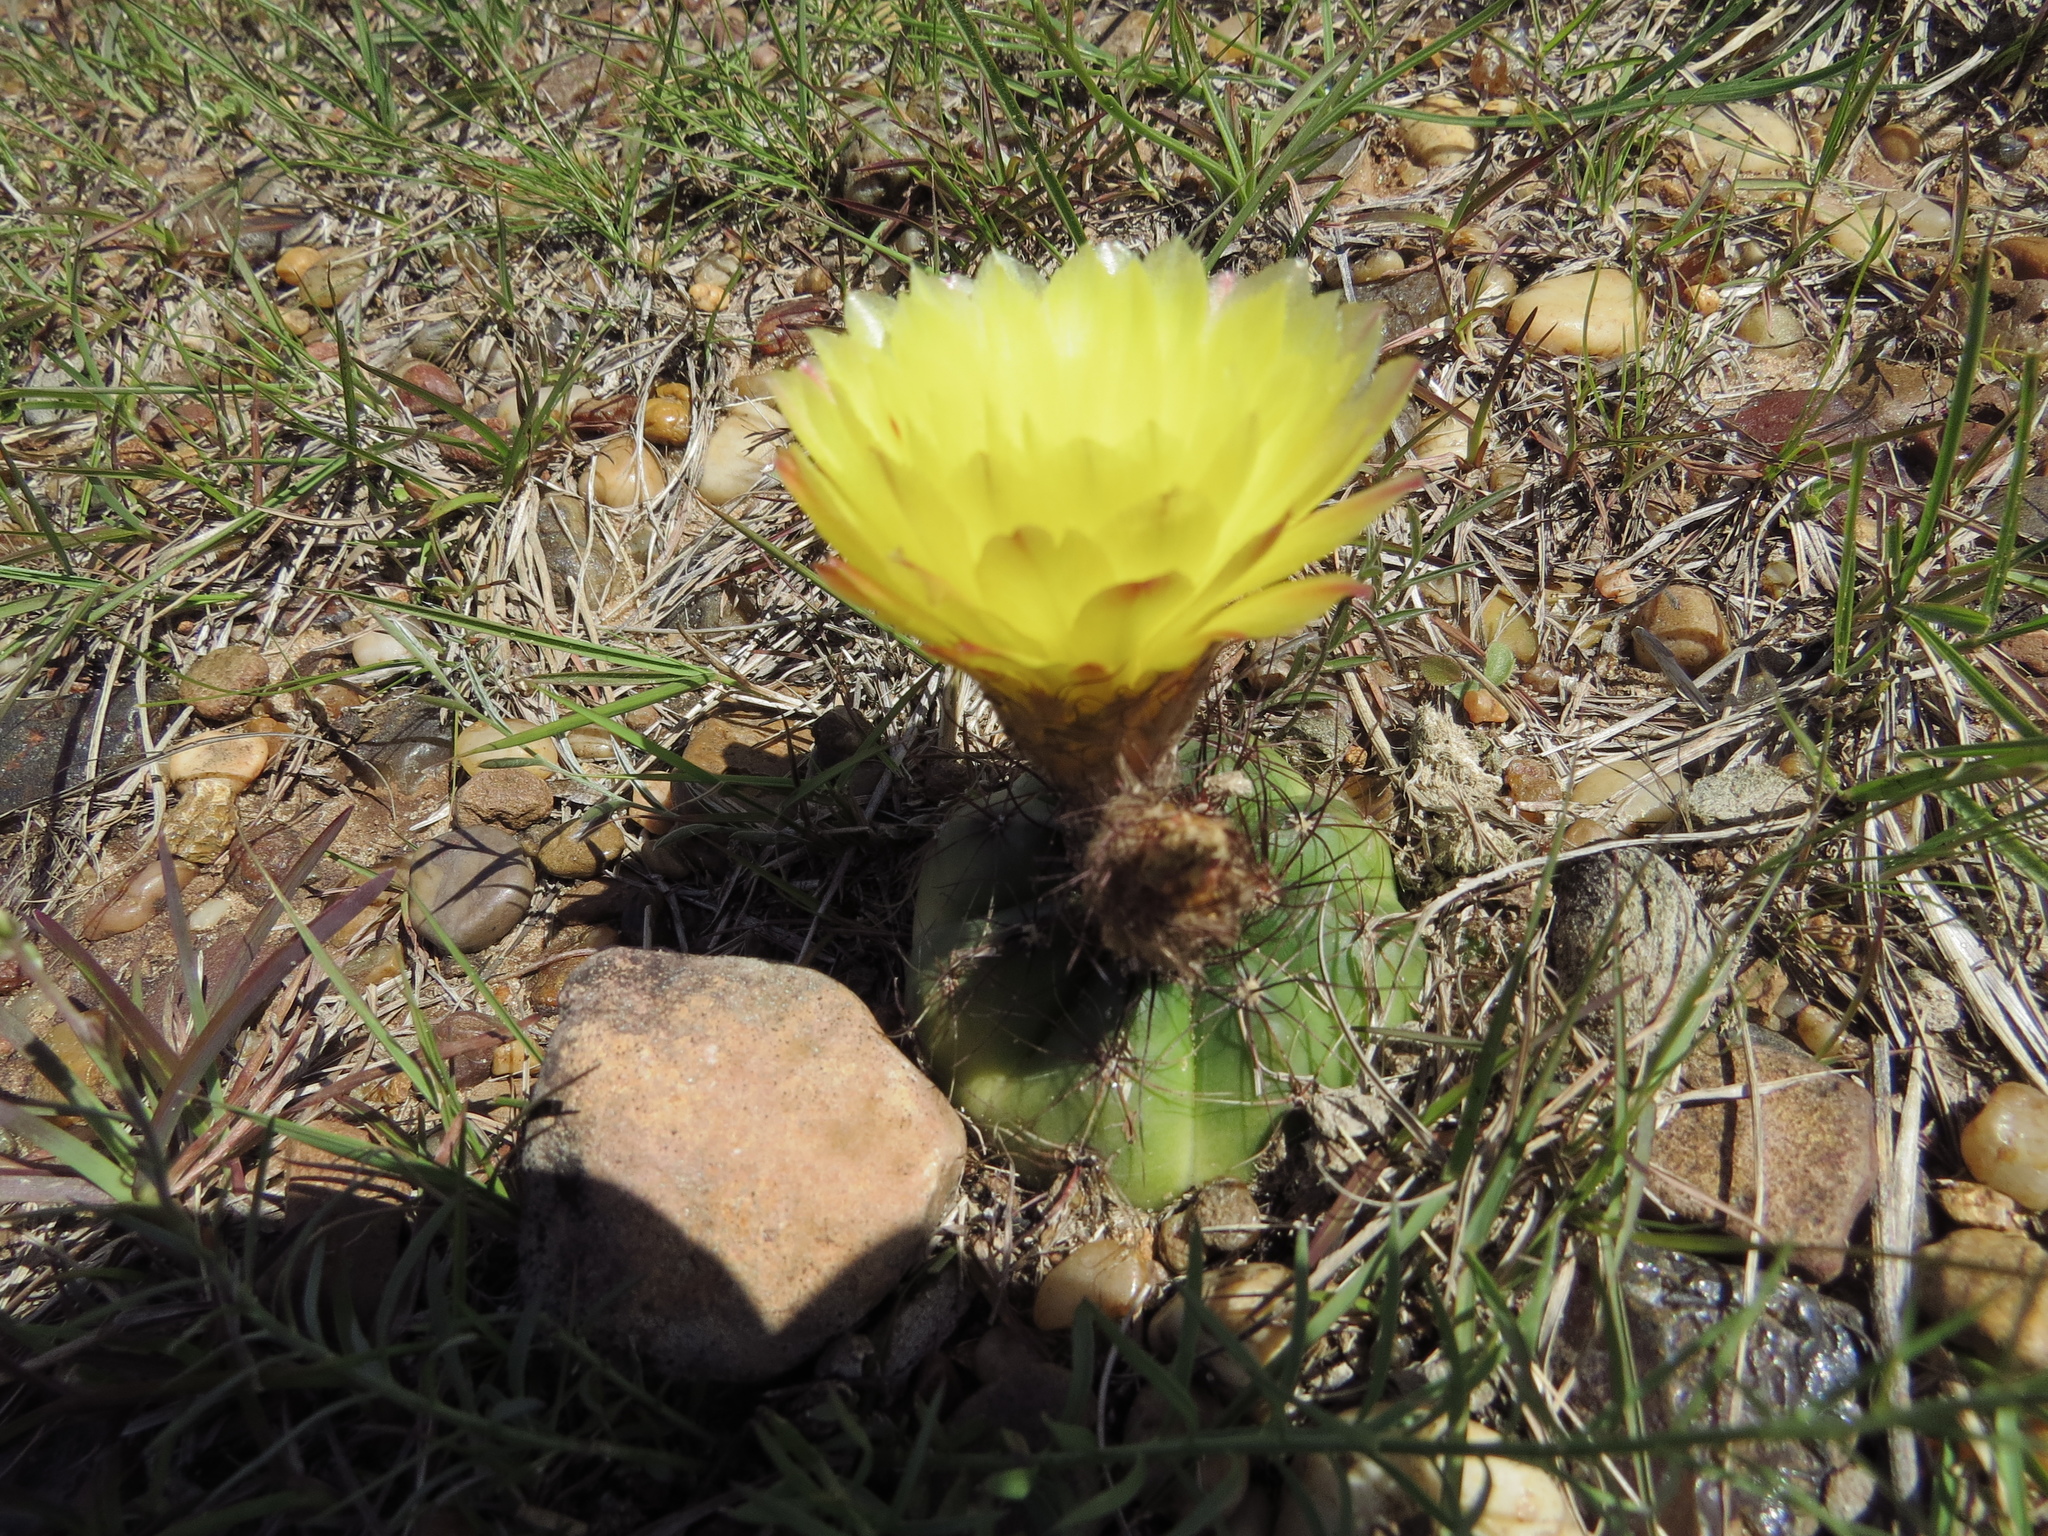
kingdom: Plantae
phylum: Tracheophyta
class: Magnoliopsida
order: Caryophyllales
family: Cactaceae
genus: Parodia
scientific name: Parodia ottonis
